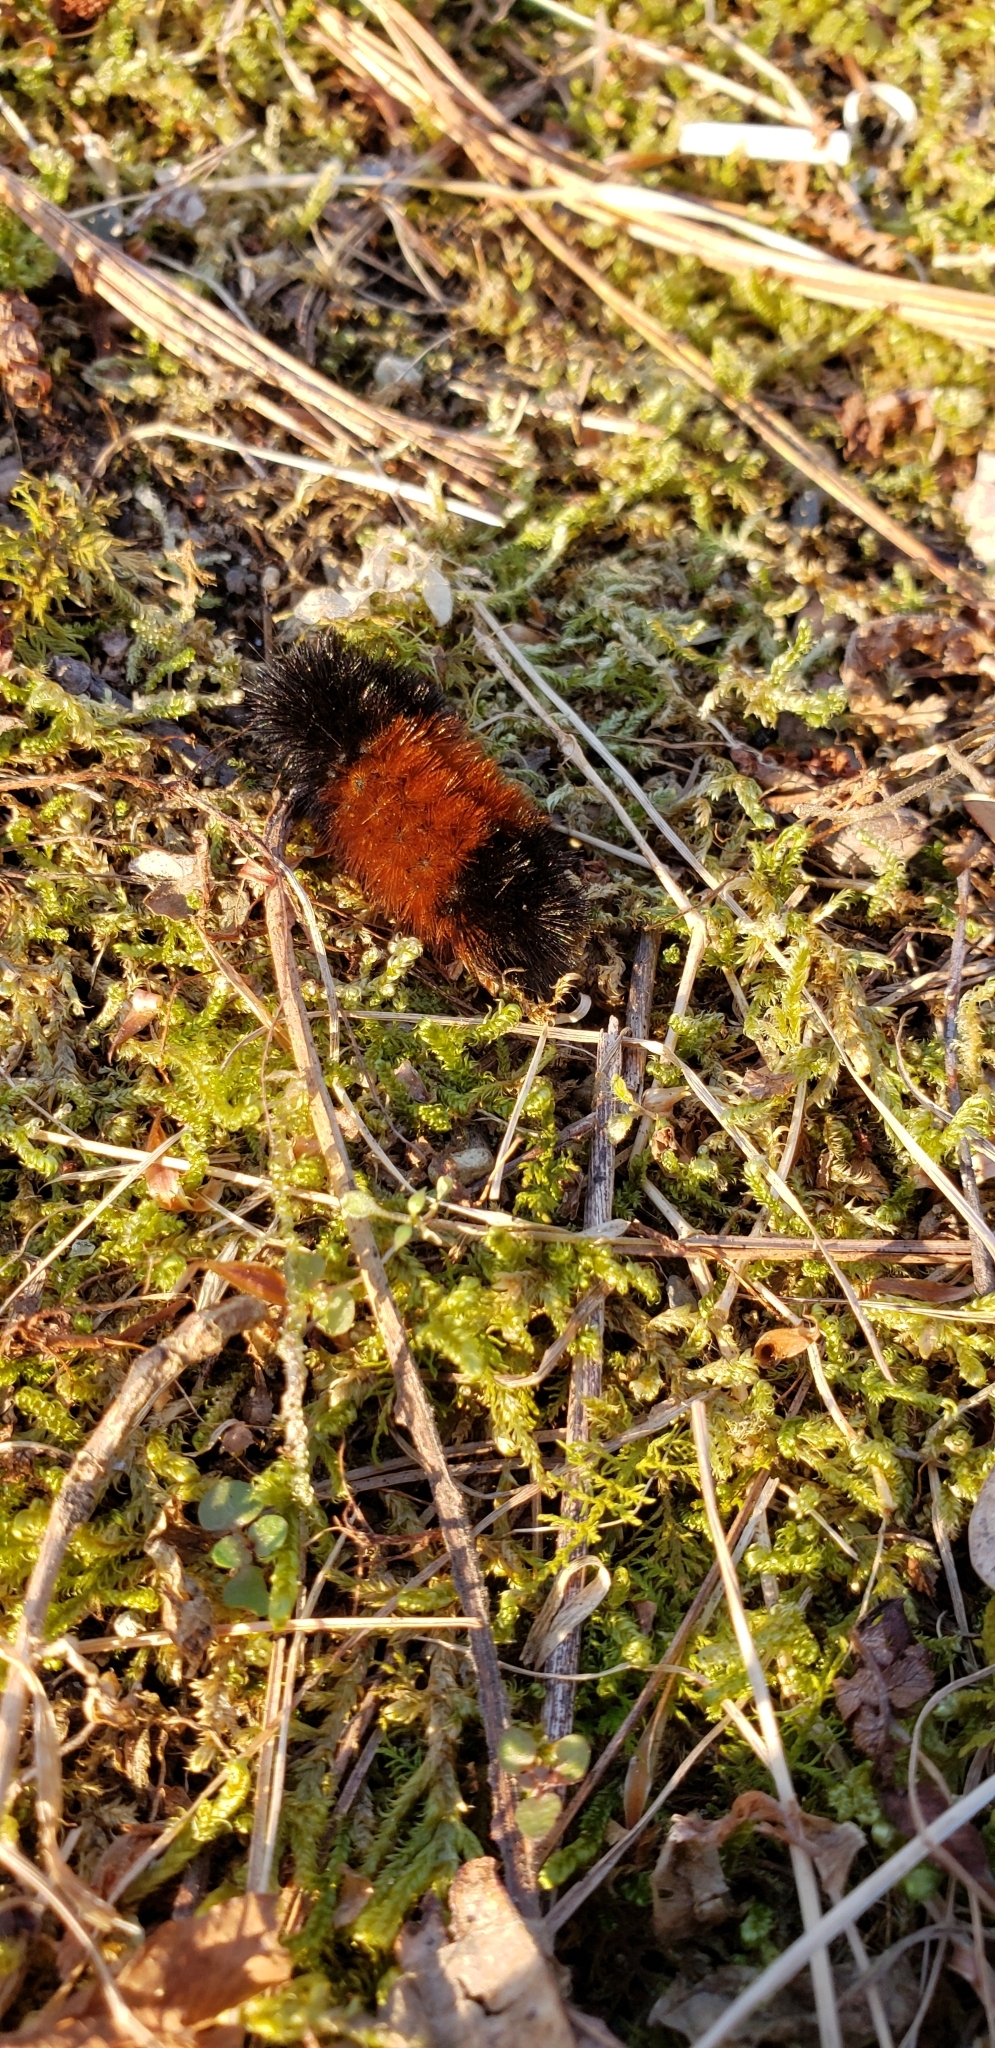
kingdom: Animalia
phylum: Arthropoda
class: Insecta
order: Lepidoptera
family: Erebidae
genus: Pyrrharctia
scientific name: Pyrrharctia isabella
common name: Isabella tiger moth
